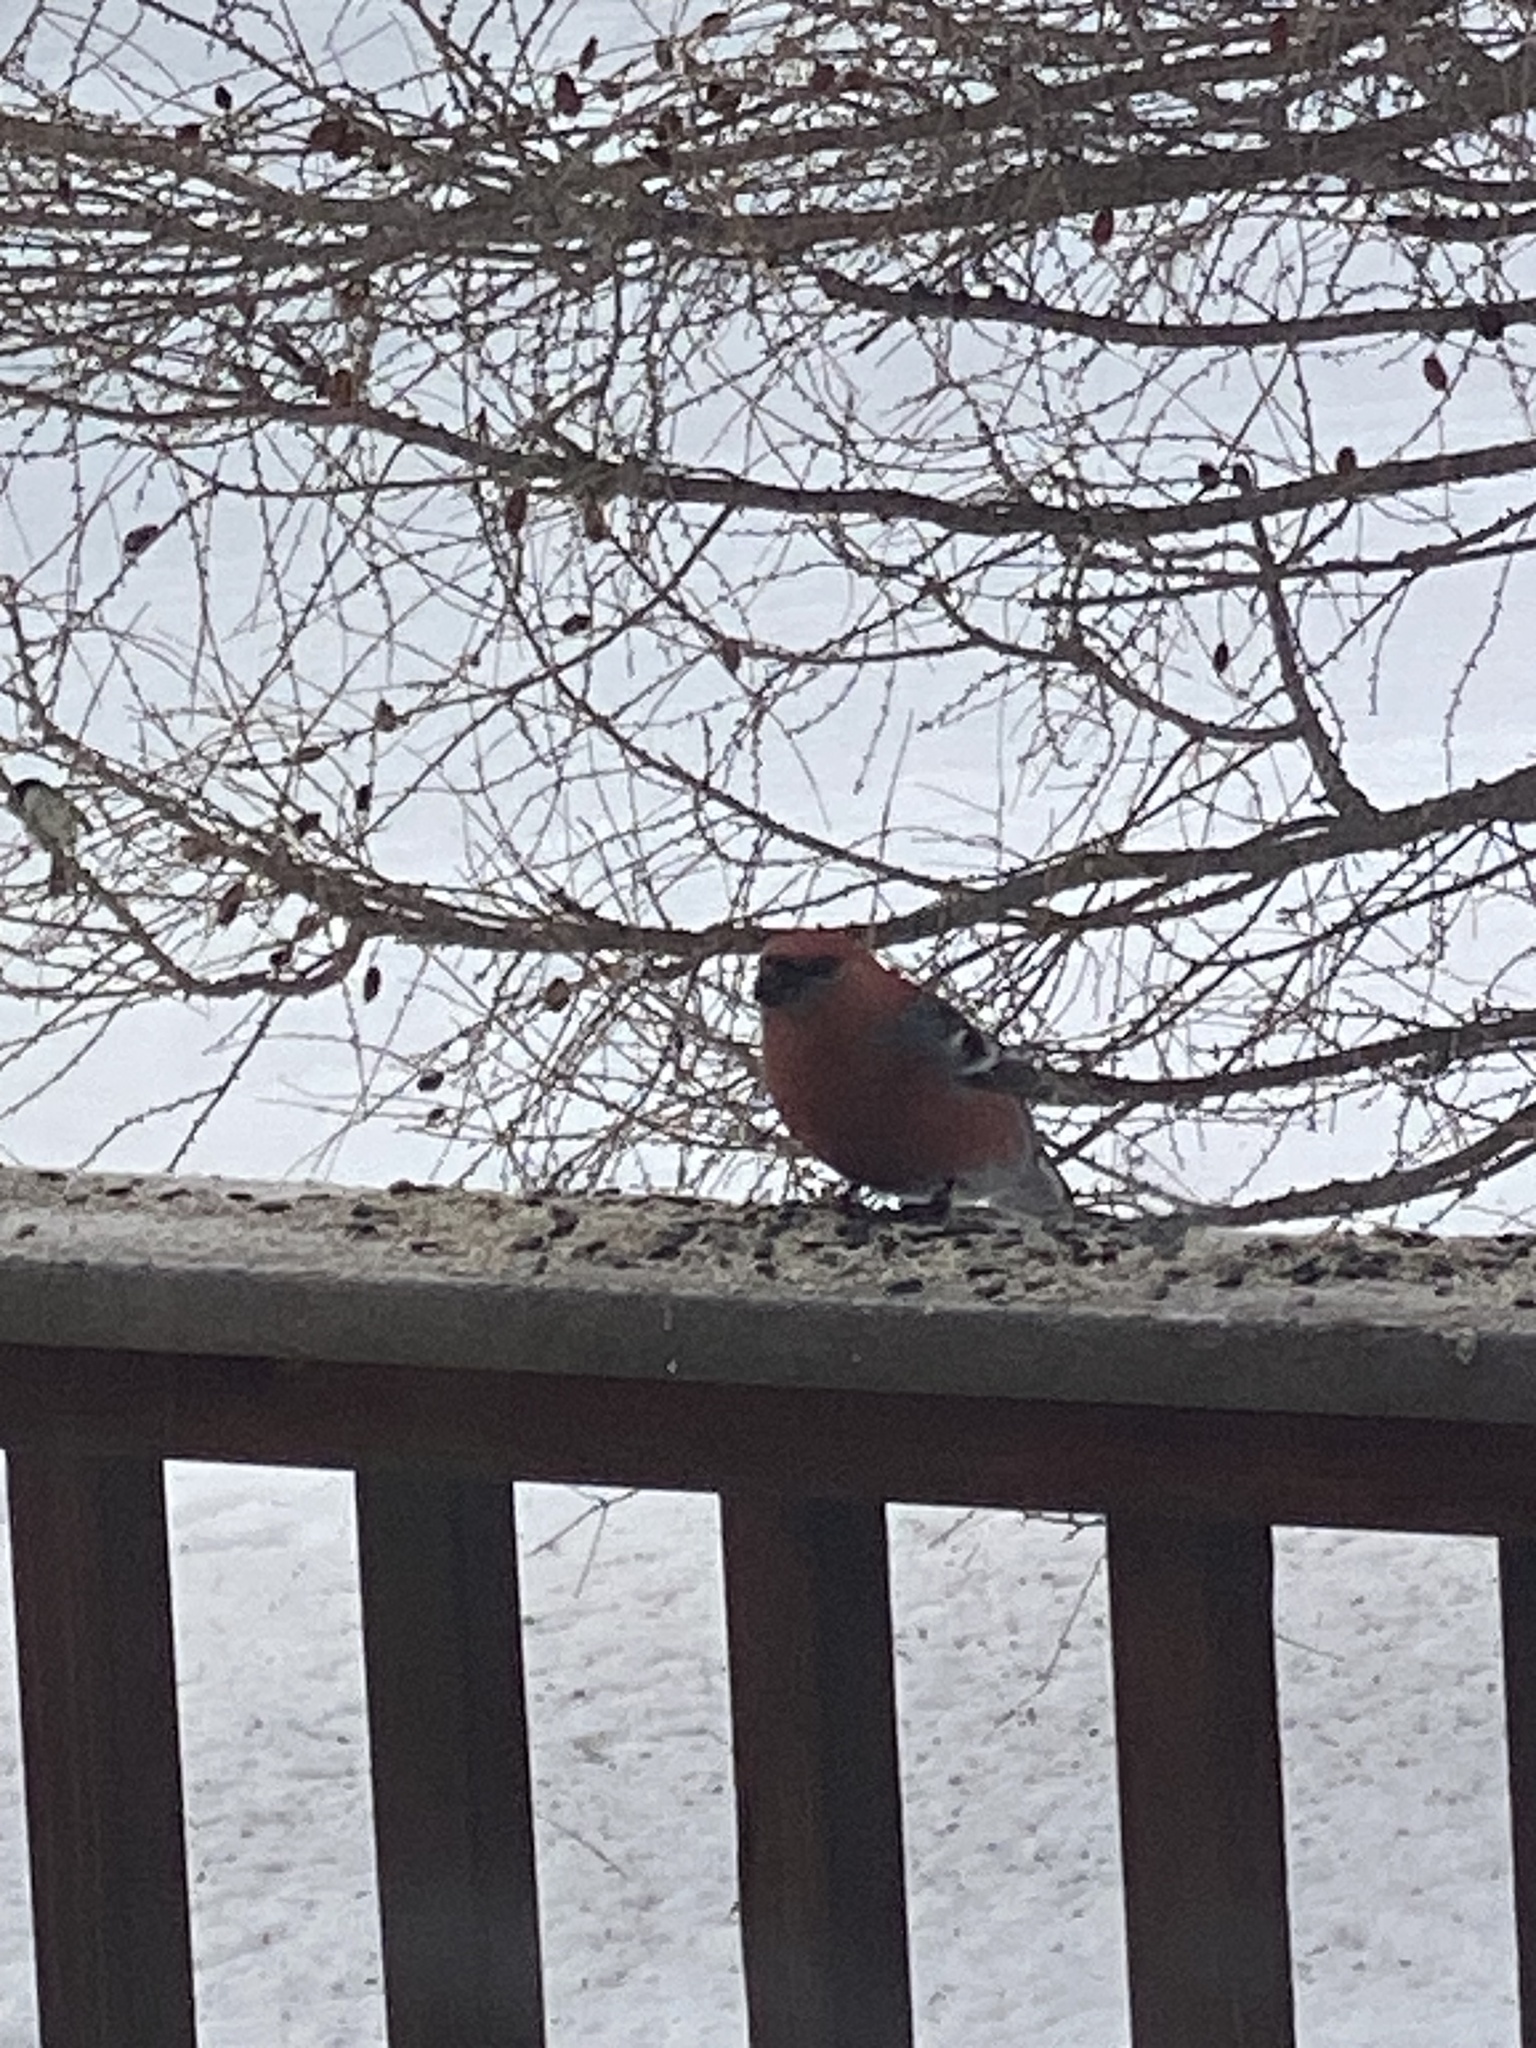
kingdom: Animalia
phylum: Chordata
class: Aves
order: Passeriformes
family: Fringillidae
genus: Pinicola
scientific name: Pinicola enucleator
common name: Pine grosbeak
